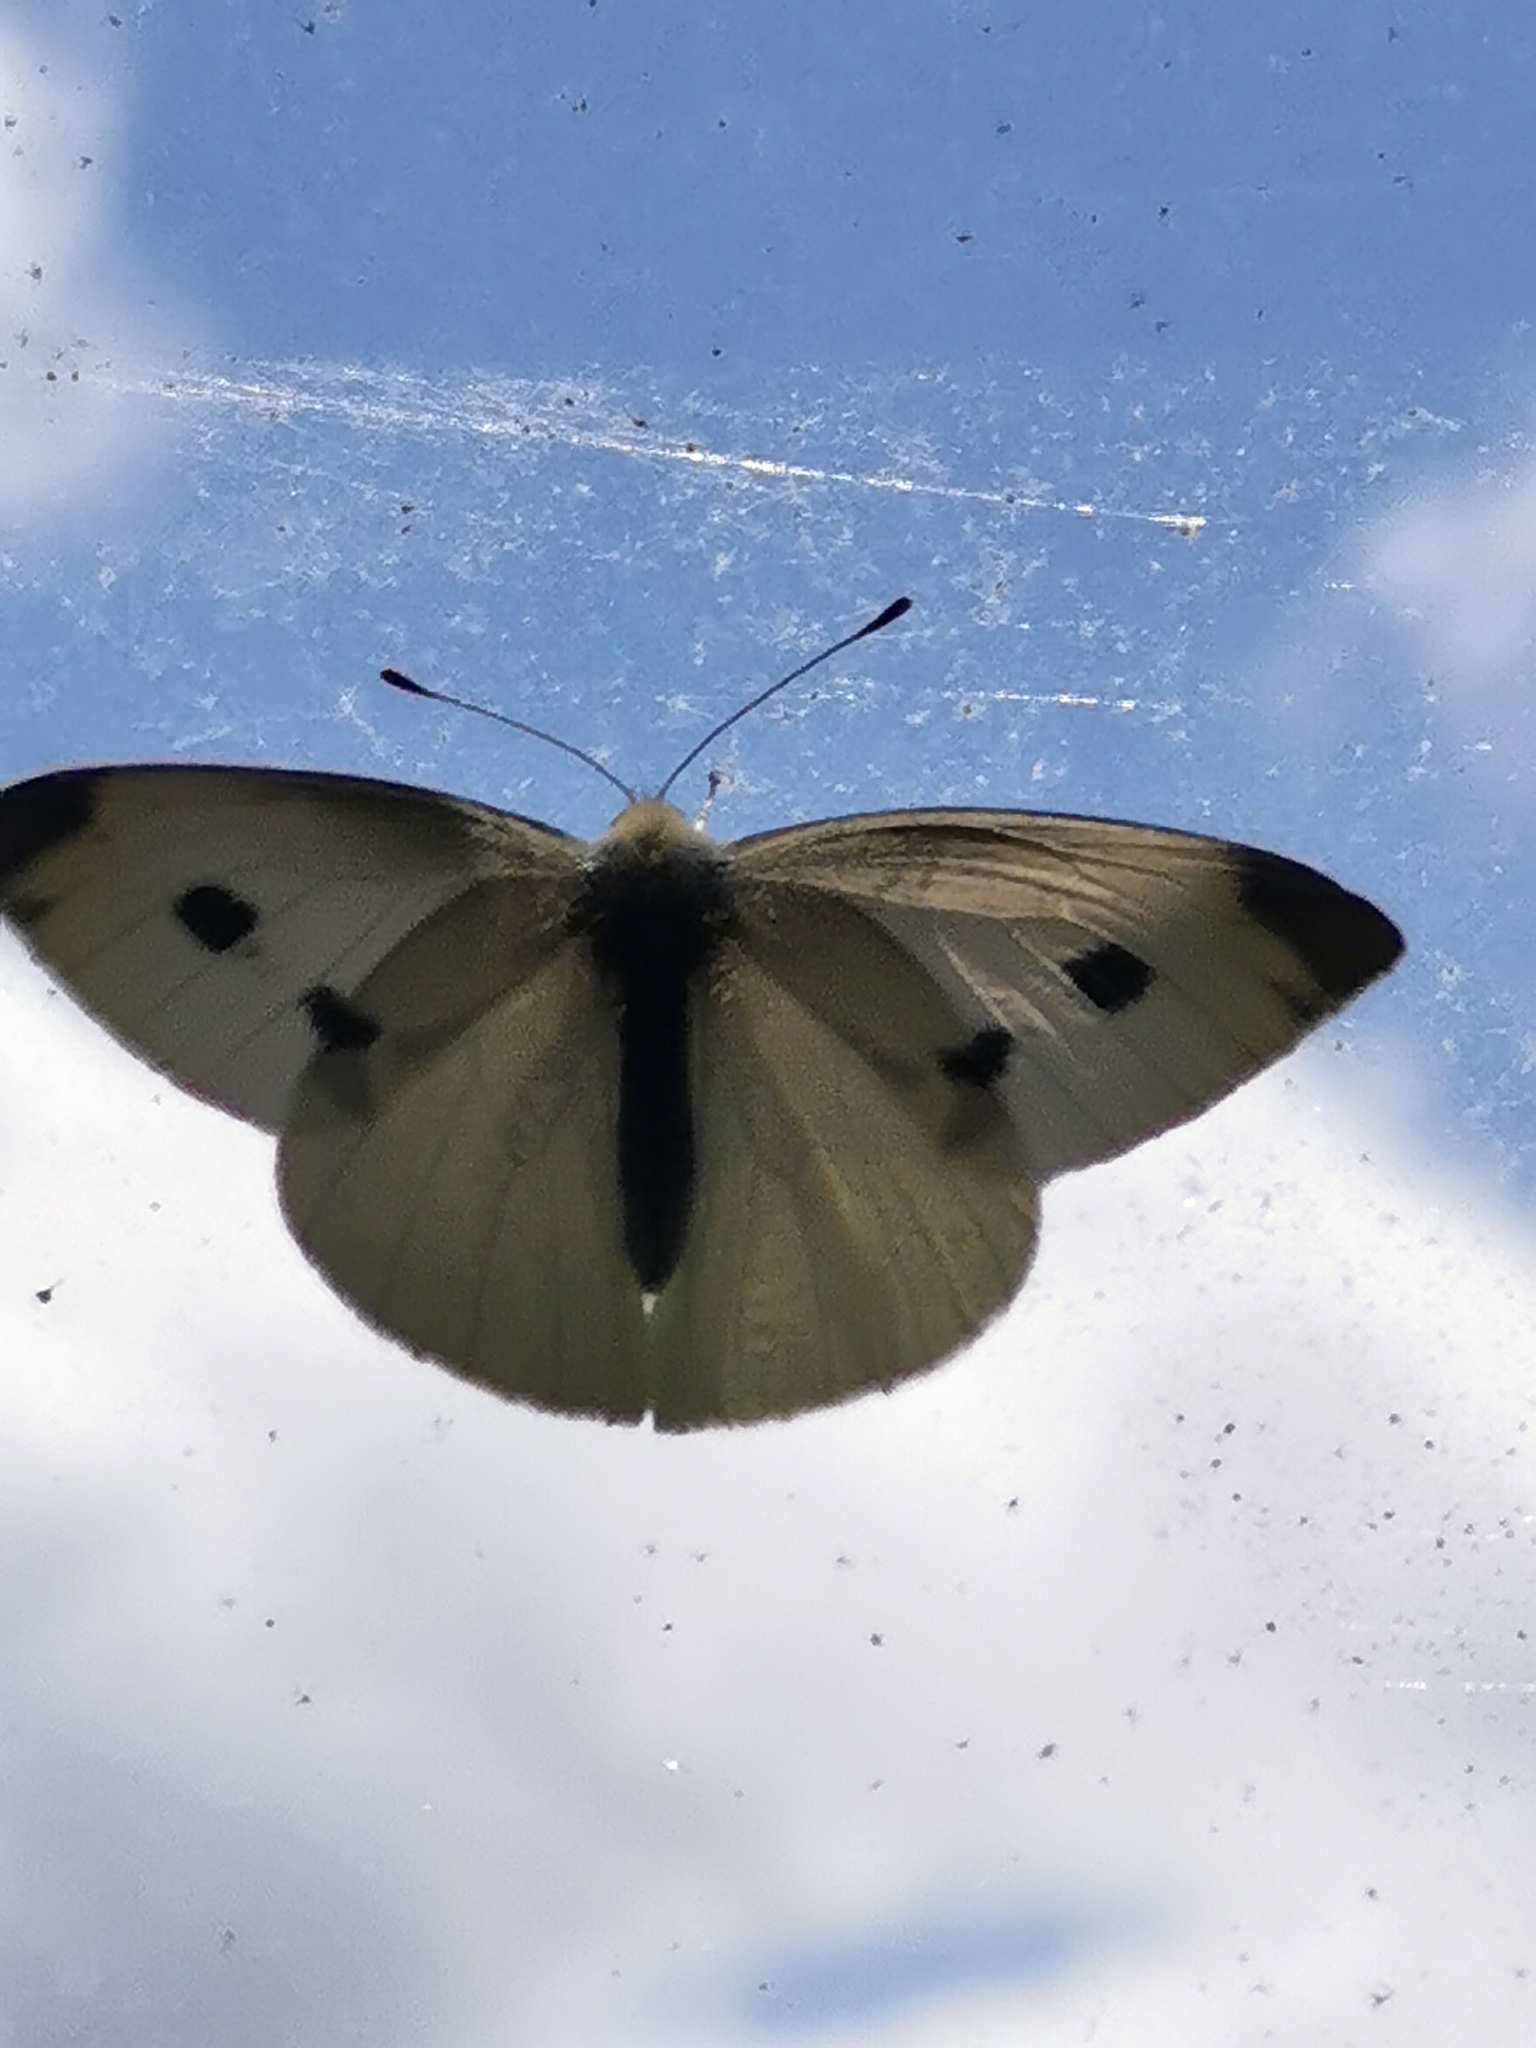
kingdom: Animalia
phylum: Arthropoda
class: Insecta
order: Lepidoptera
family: Pieridae
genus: Pieris
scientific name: Pieris rapae
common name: Small white
